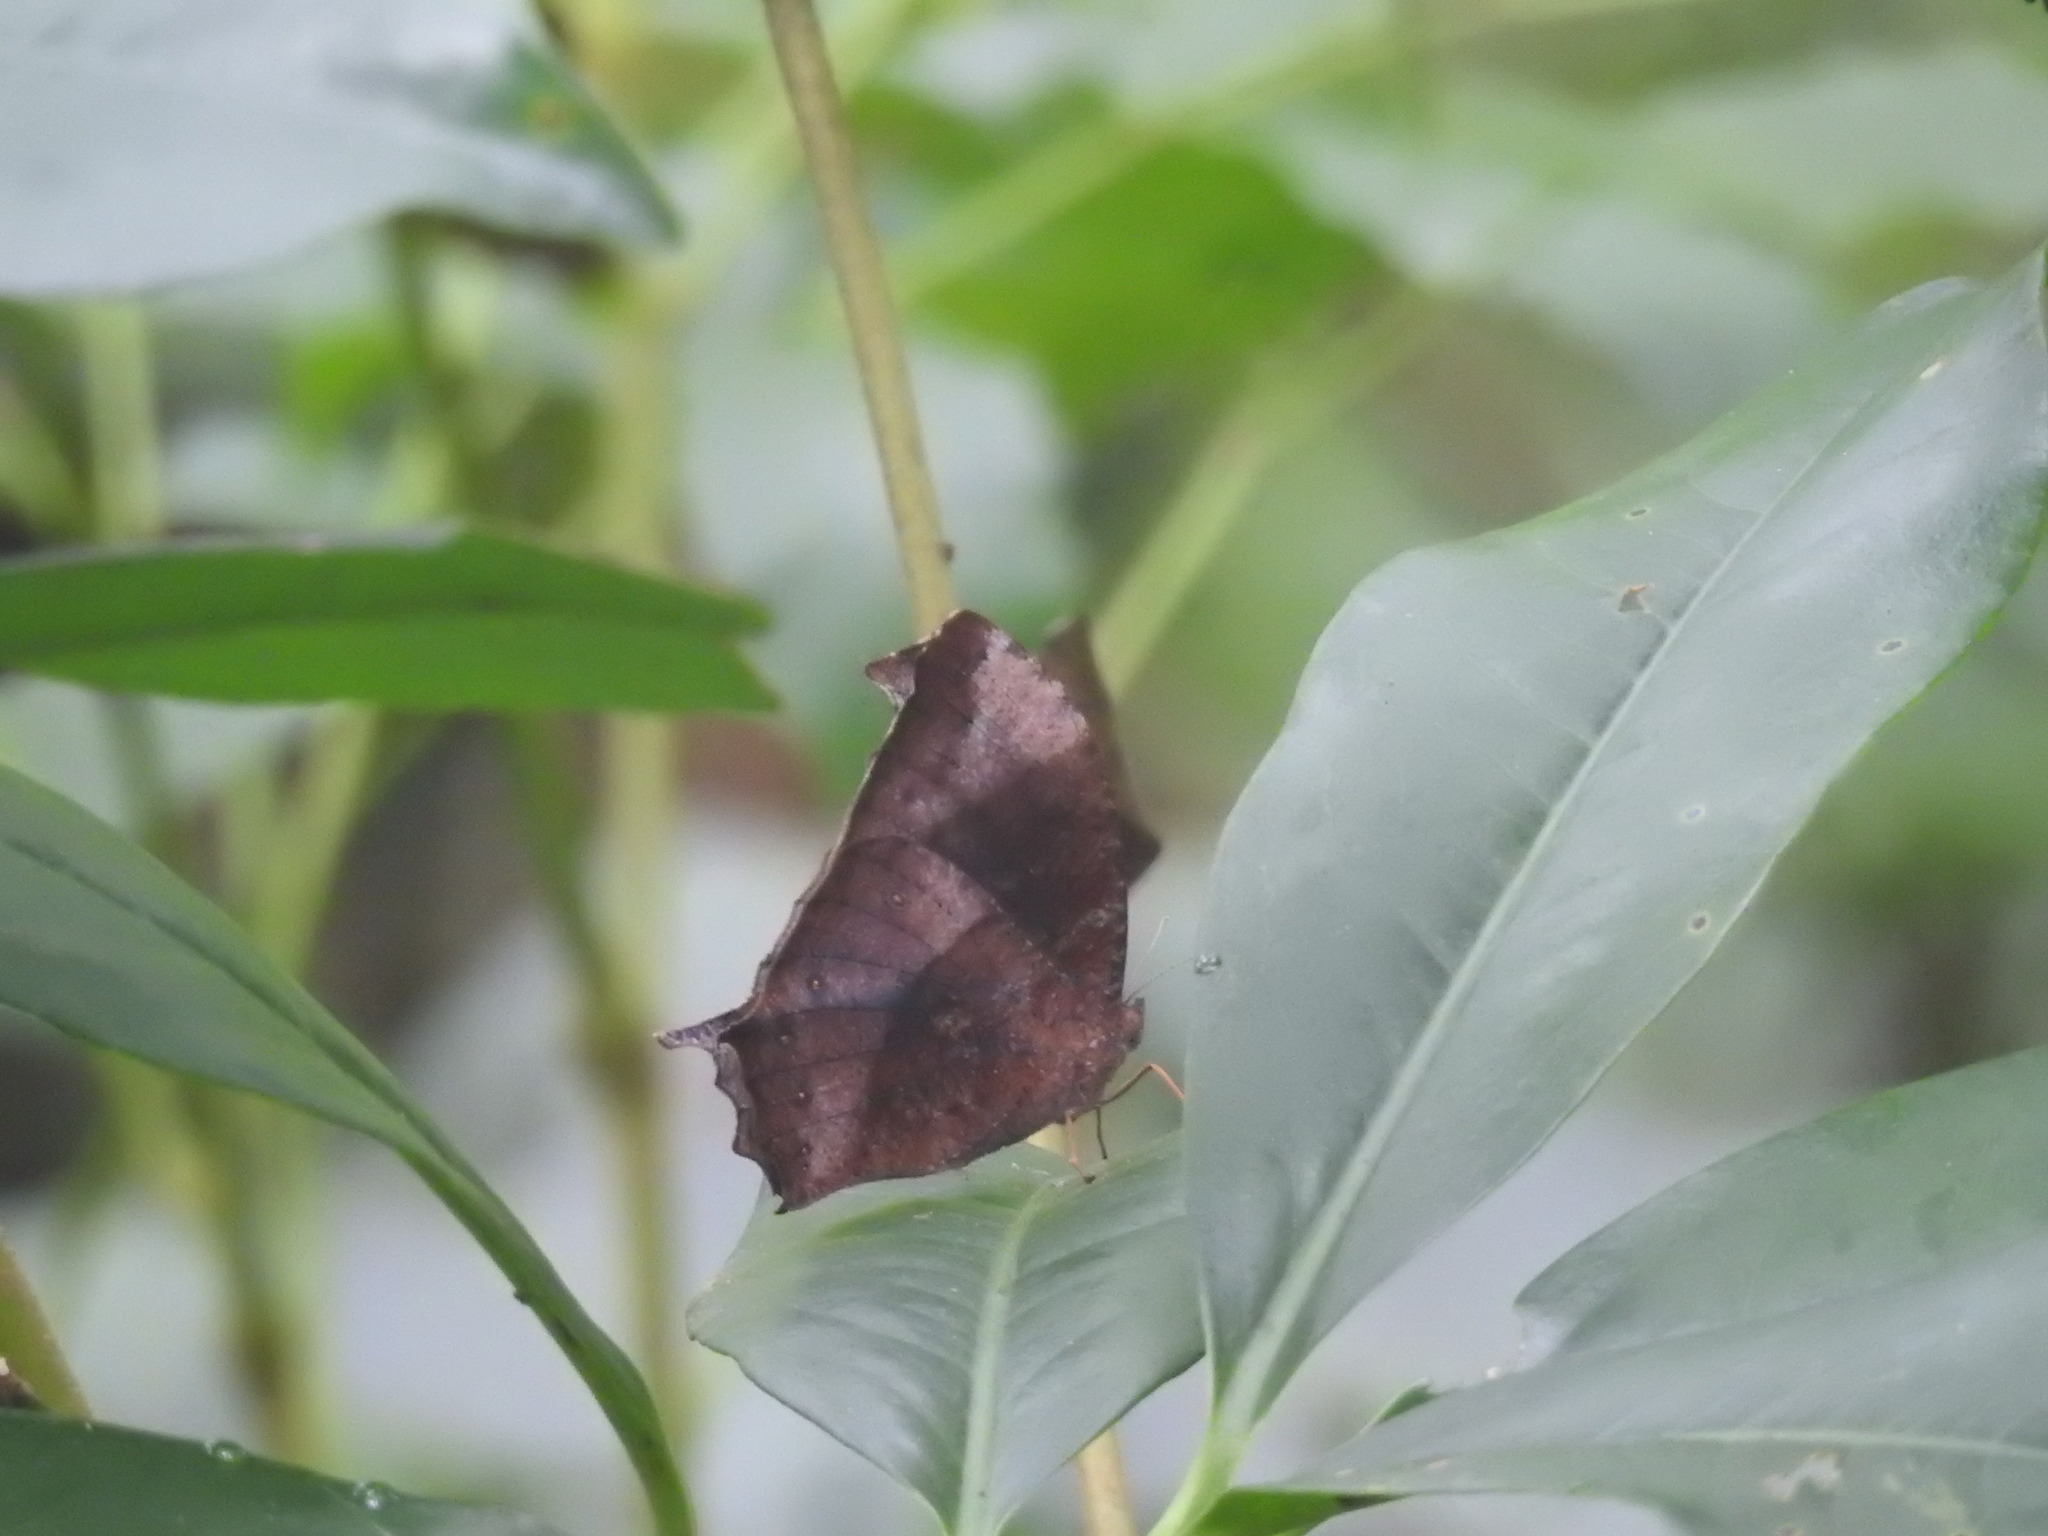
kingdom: Animalia
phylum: Arthropoda
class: Insecta
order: Lepidoptera
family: Nymphalidae
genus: Melanitis
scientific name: Melanitis phedima
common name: Dark evening brown
